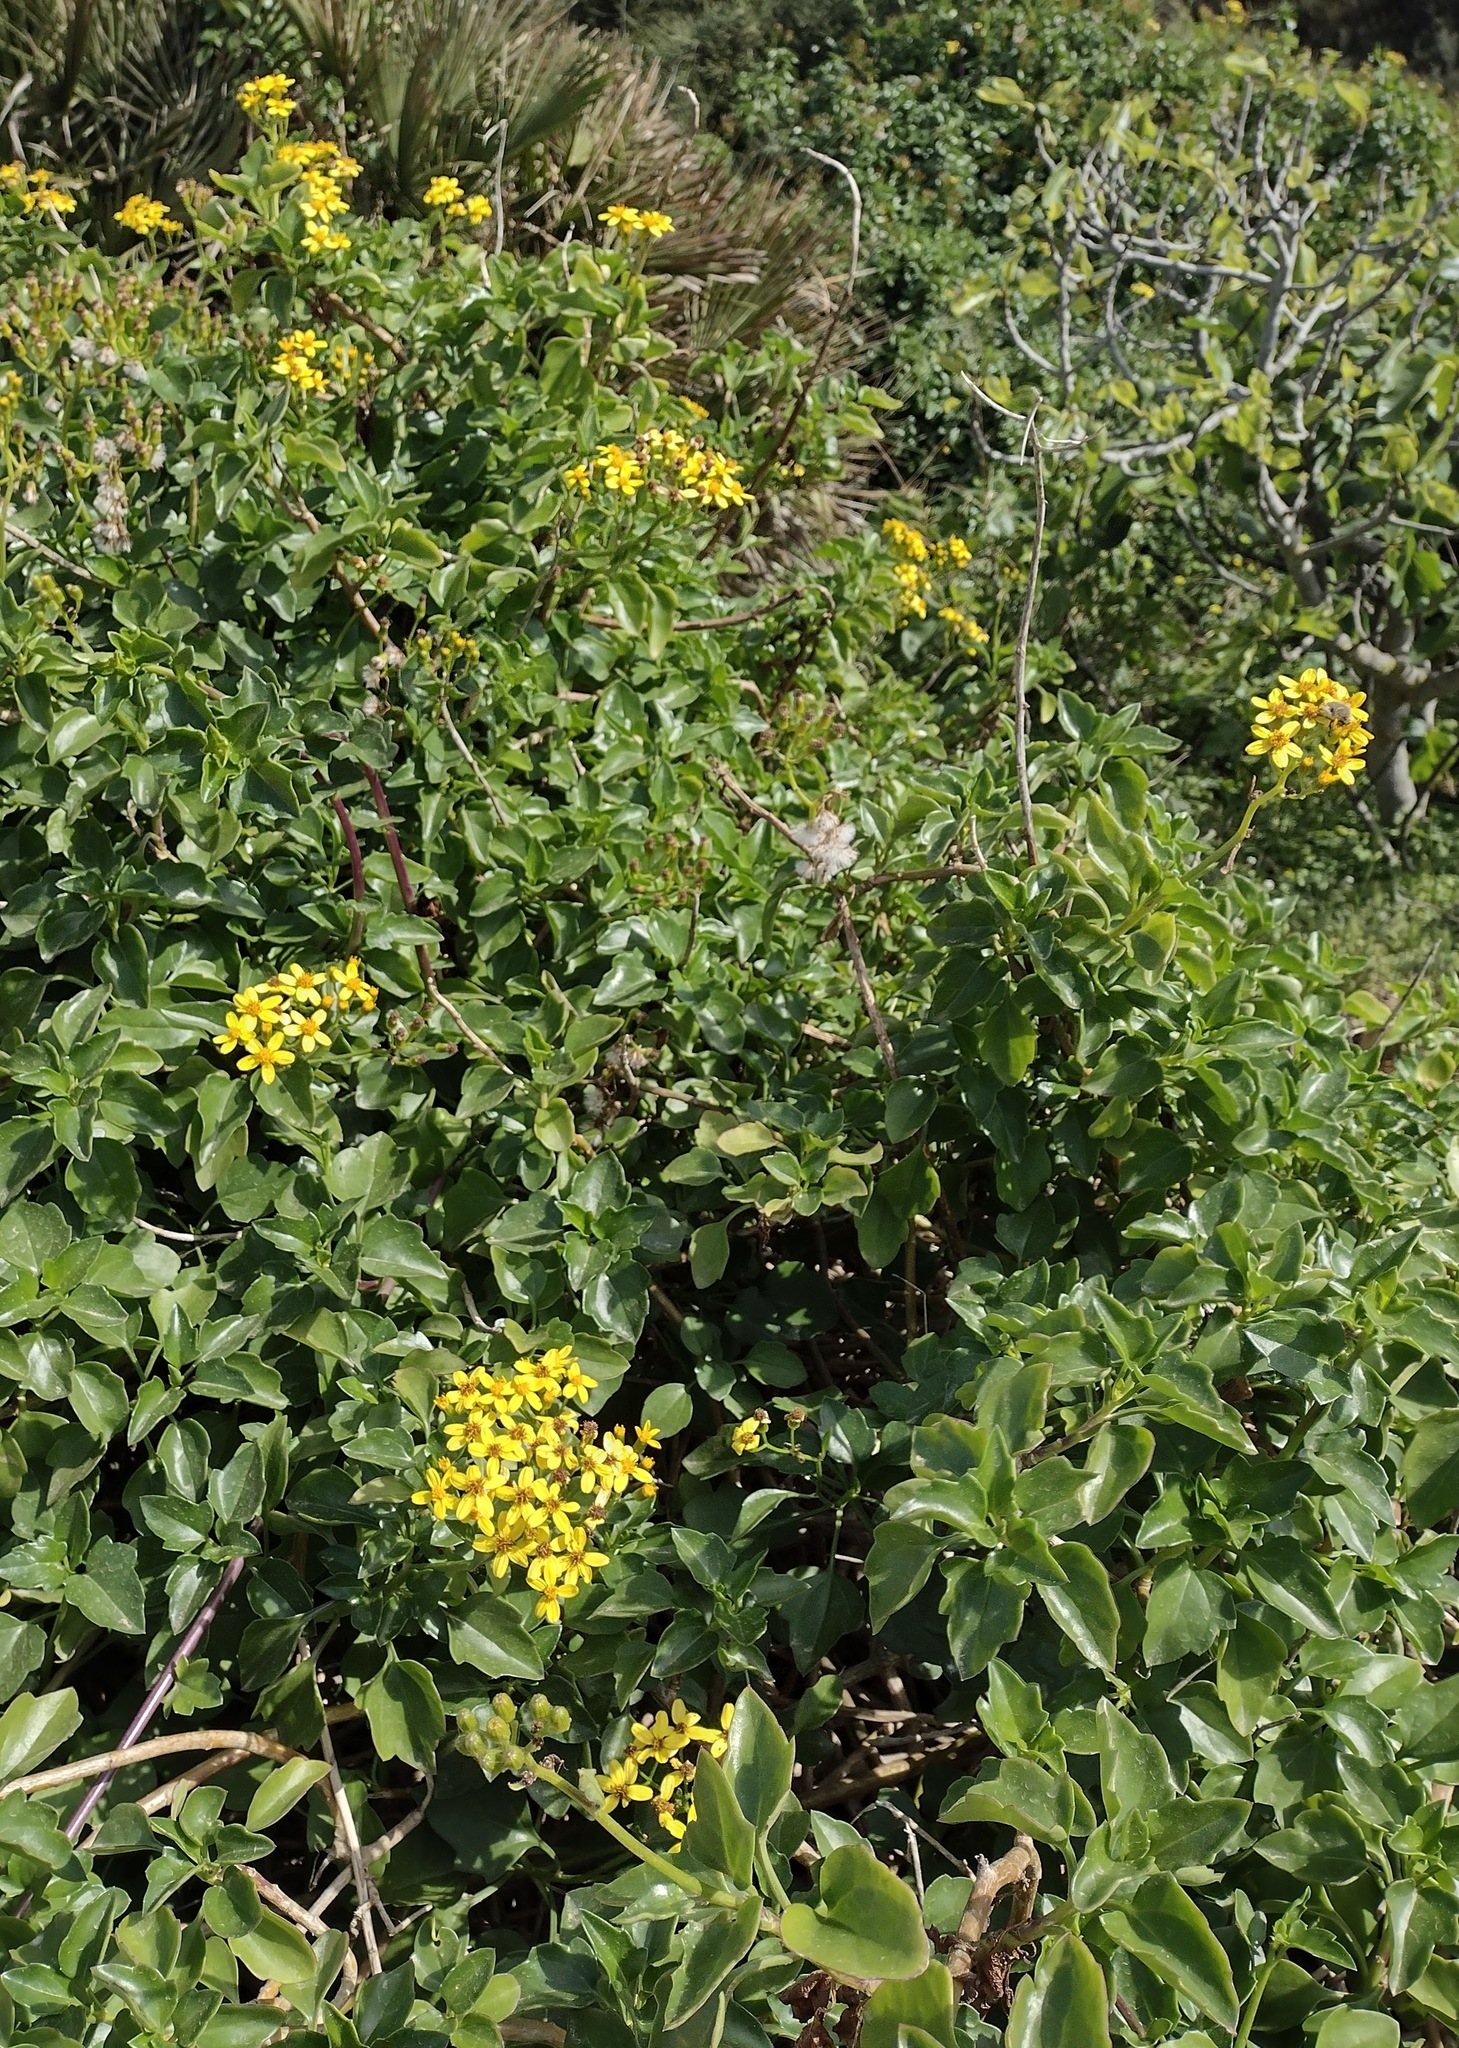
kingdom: Plantae
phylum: Tracheophyta
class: Magnoliopsida
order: Asterales
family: Asteraceae
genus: Senecio
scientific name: Senecio angulatus
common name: Climbing groundsel
